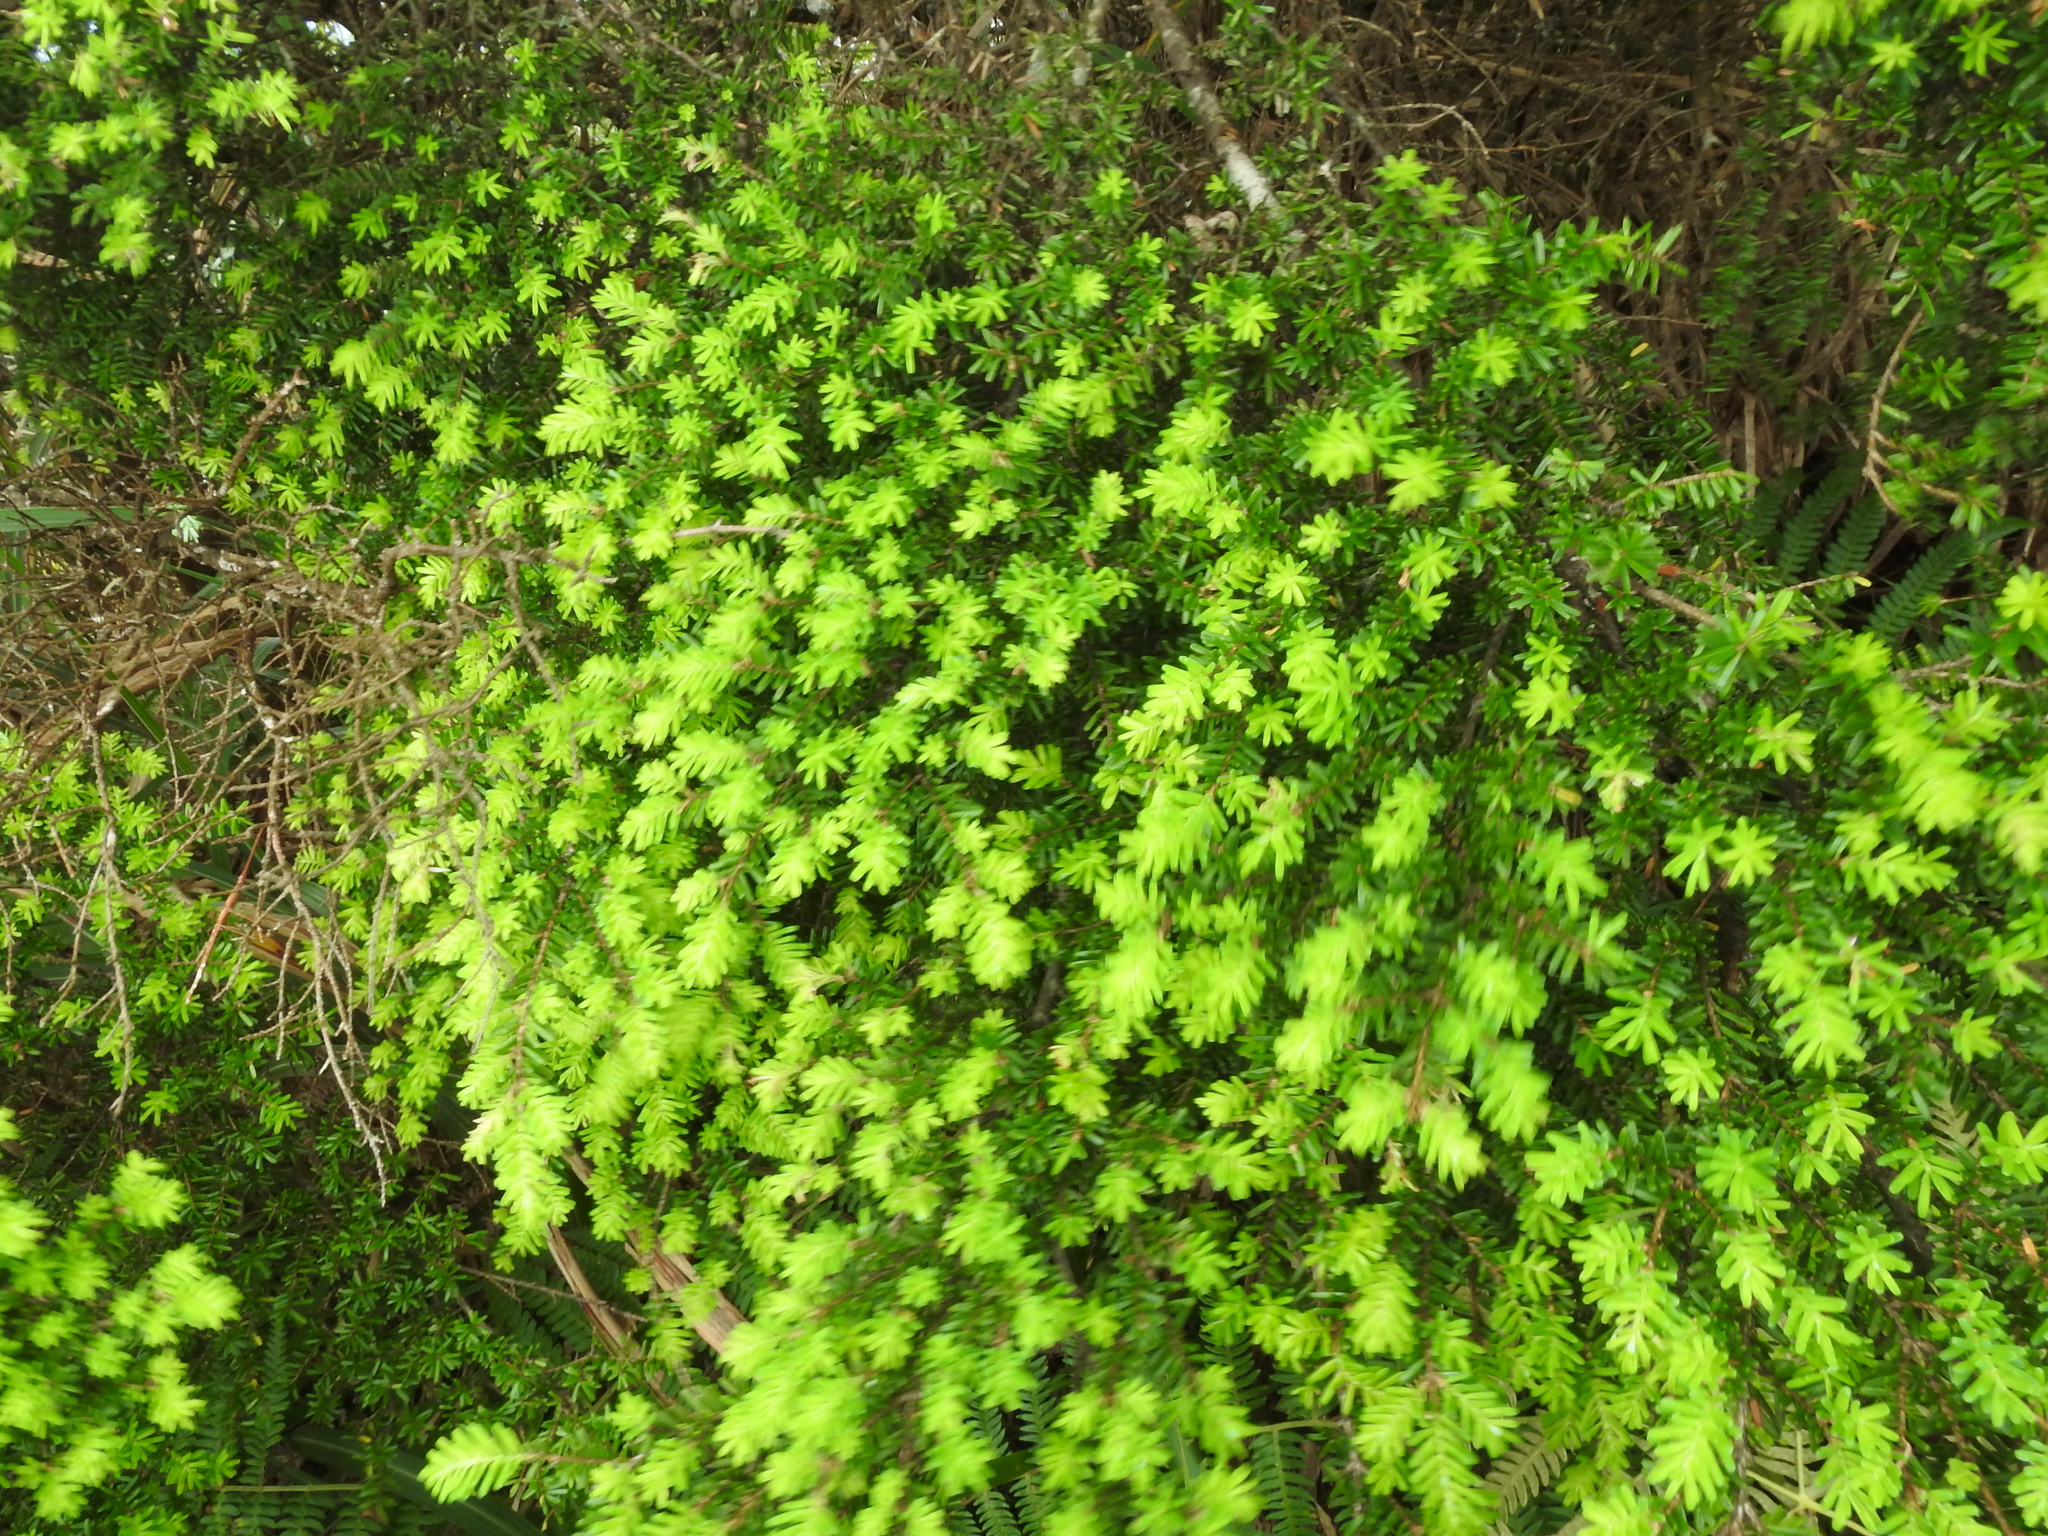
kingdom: Plantae
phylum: Tracheophyta
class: Pinopsida
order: Pinales
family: Pinaceae
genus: Tsuga
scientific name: Tsuga chinensis
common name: Chinese hemlock
